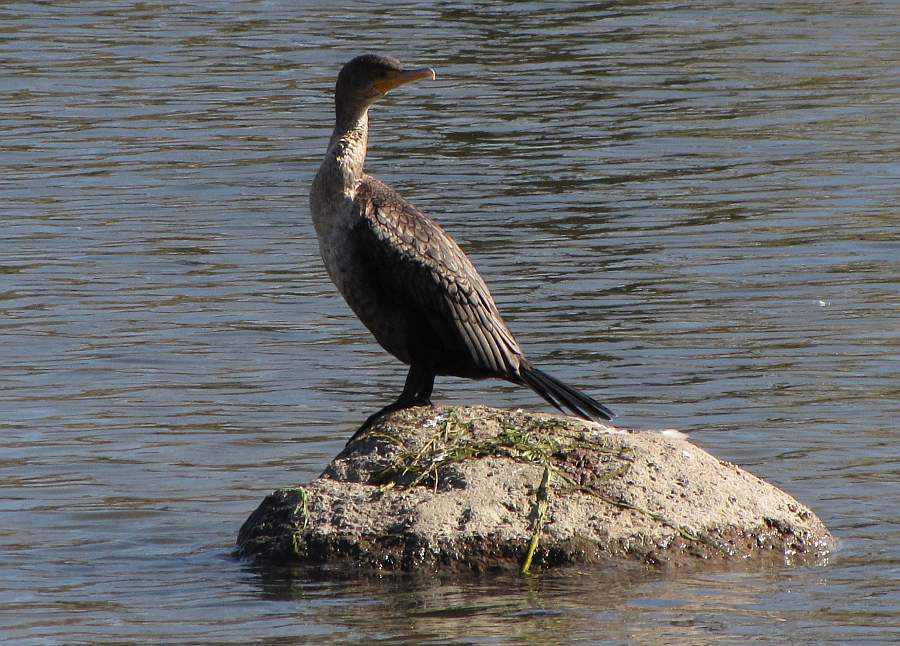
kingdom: Animalia
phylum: Chordata
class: Aves
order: Suliformes
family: Phalacrocoracidae
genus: Phalacrocorax
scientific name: Phalacrocorax auritus
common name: Double-crested cormorant
